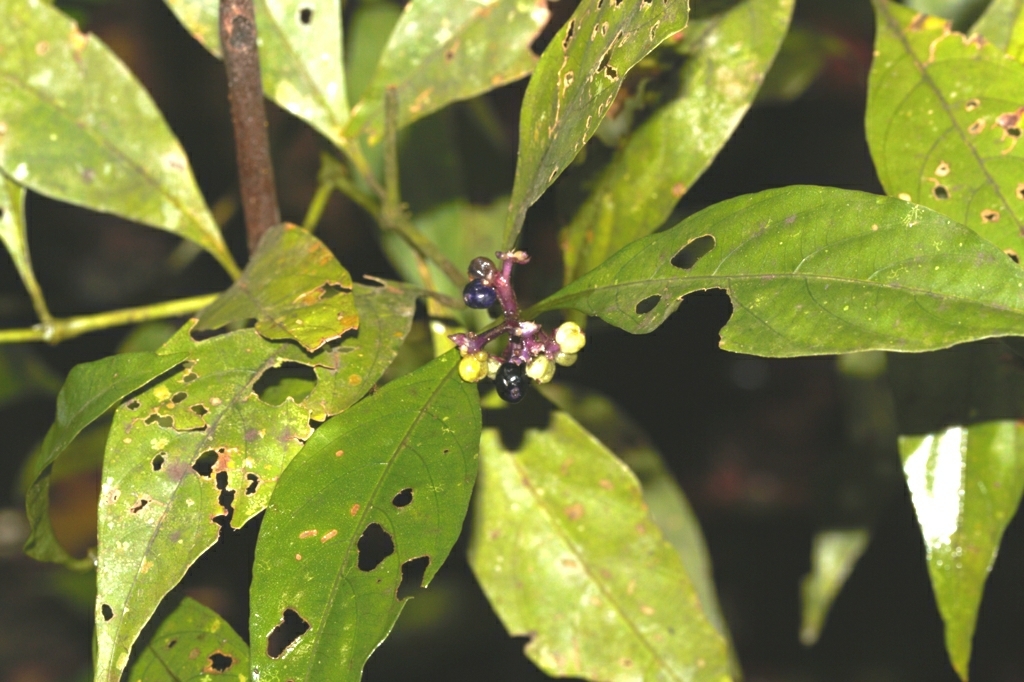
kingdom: Plantae
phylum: Tracheophyta
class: Magnoliopsida
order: Gentianales
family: Rubiaceae
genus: Palicourea
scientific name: Palicourea gracilenta
